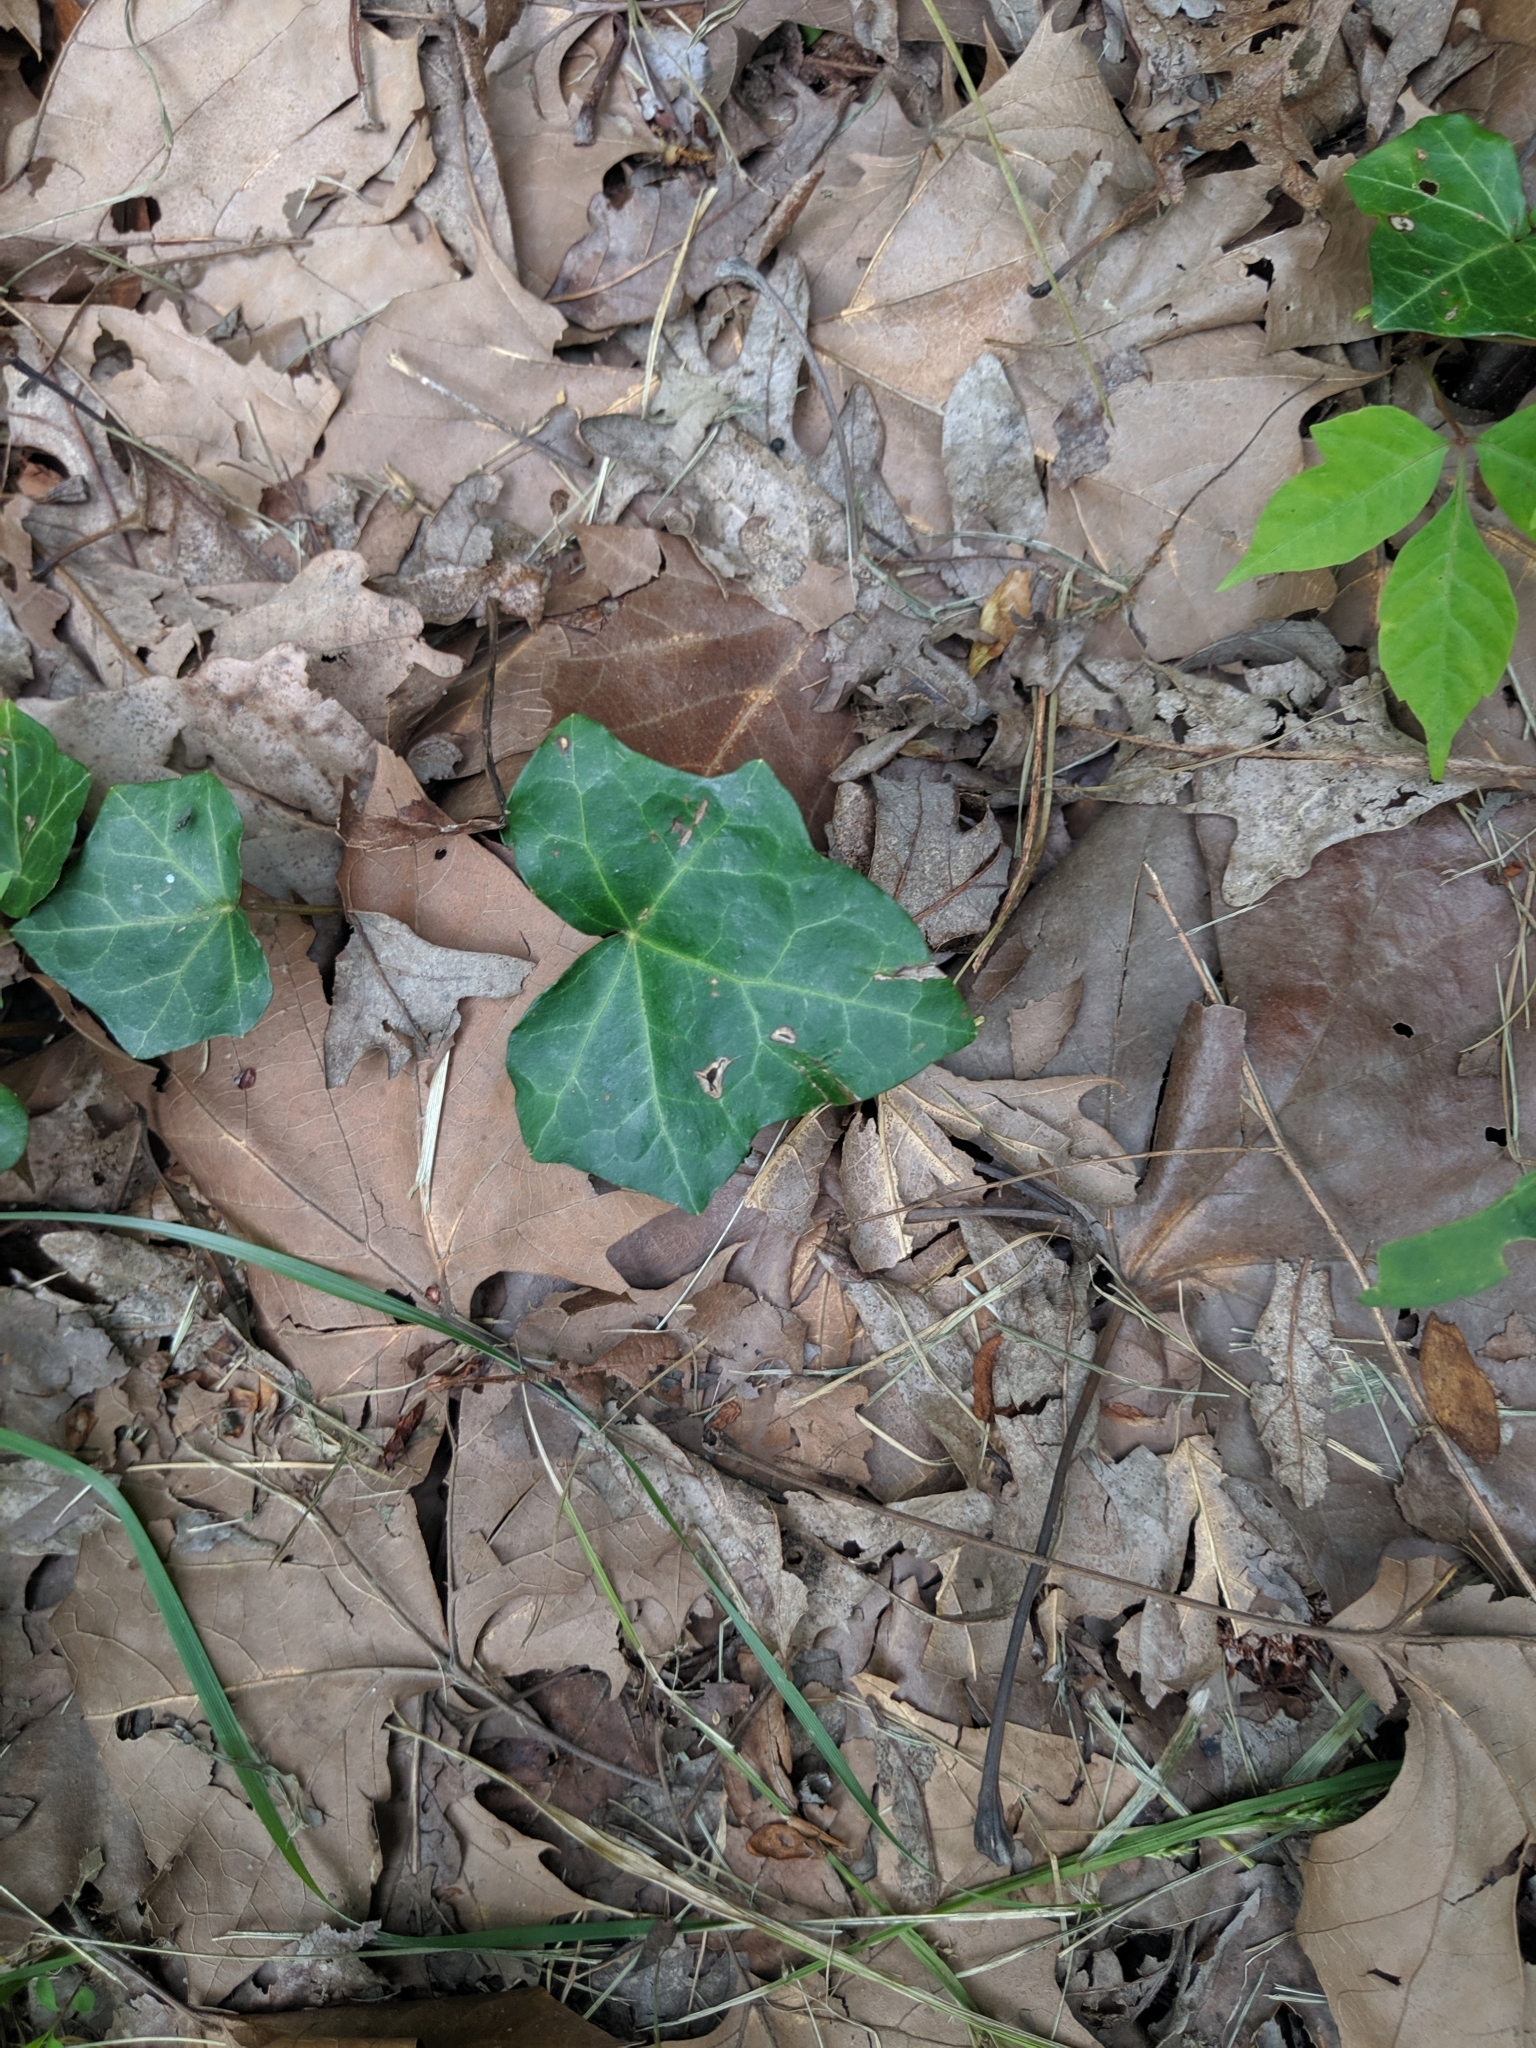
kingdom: Plantae
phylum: Tracheophyta
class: Magnoliopsida
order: Apiales
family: Araliaceae
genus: Hedera
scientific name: Hedera helix
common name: Ivy
